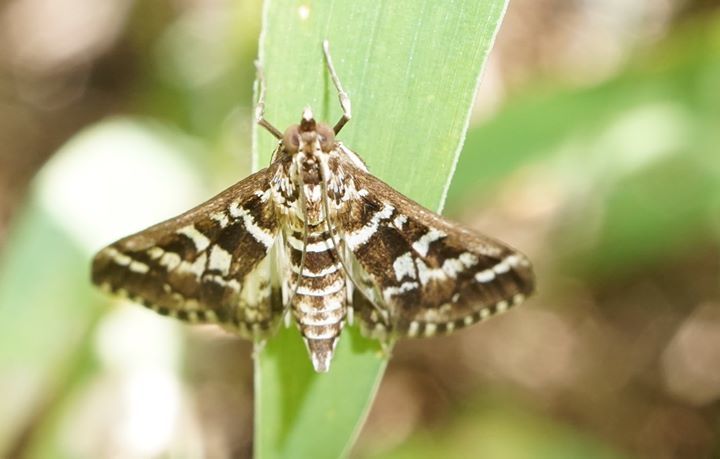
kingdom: Animalia
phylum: Arthropoda
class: Insecta
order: Lepidoptera
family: Crambidae
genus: Epipagis
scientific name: Epipagis forsythae
